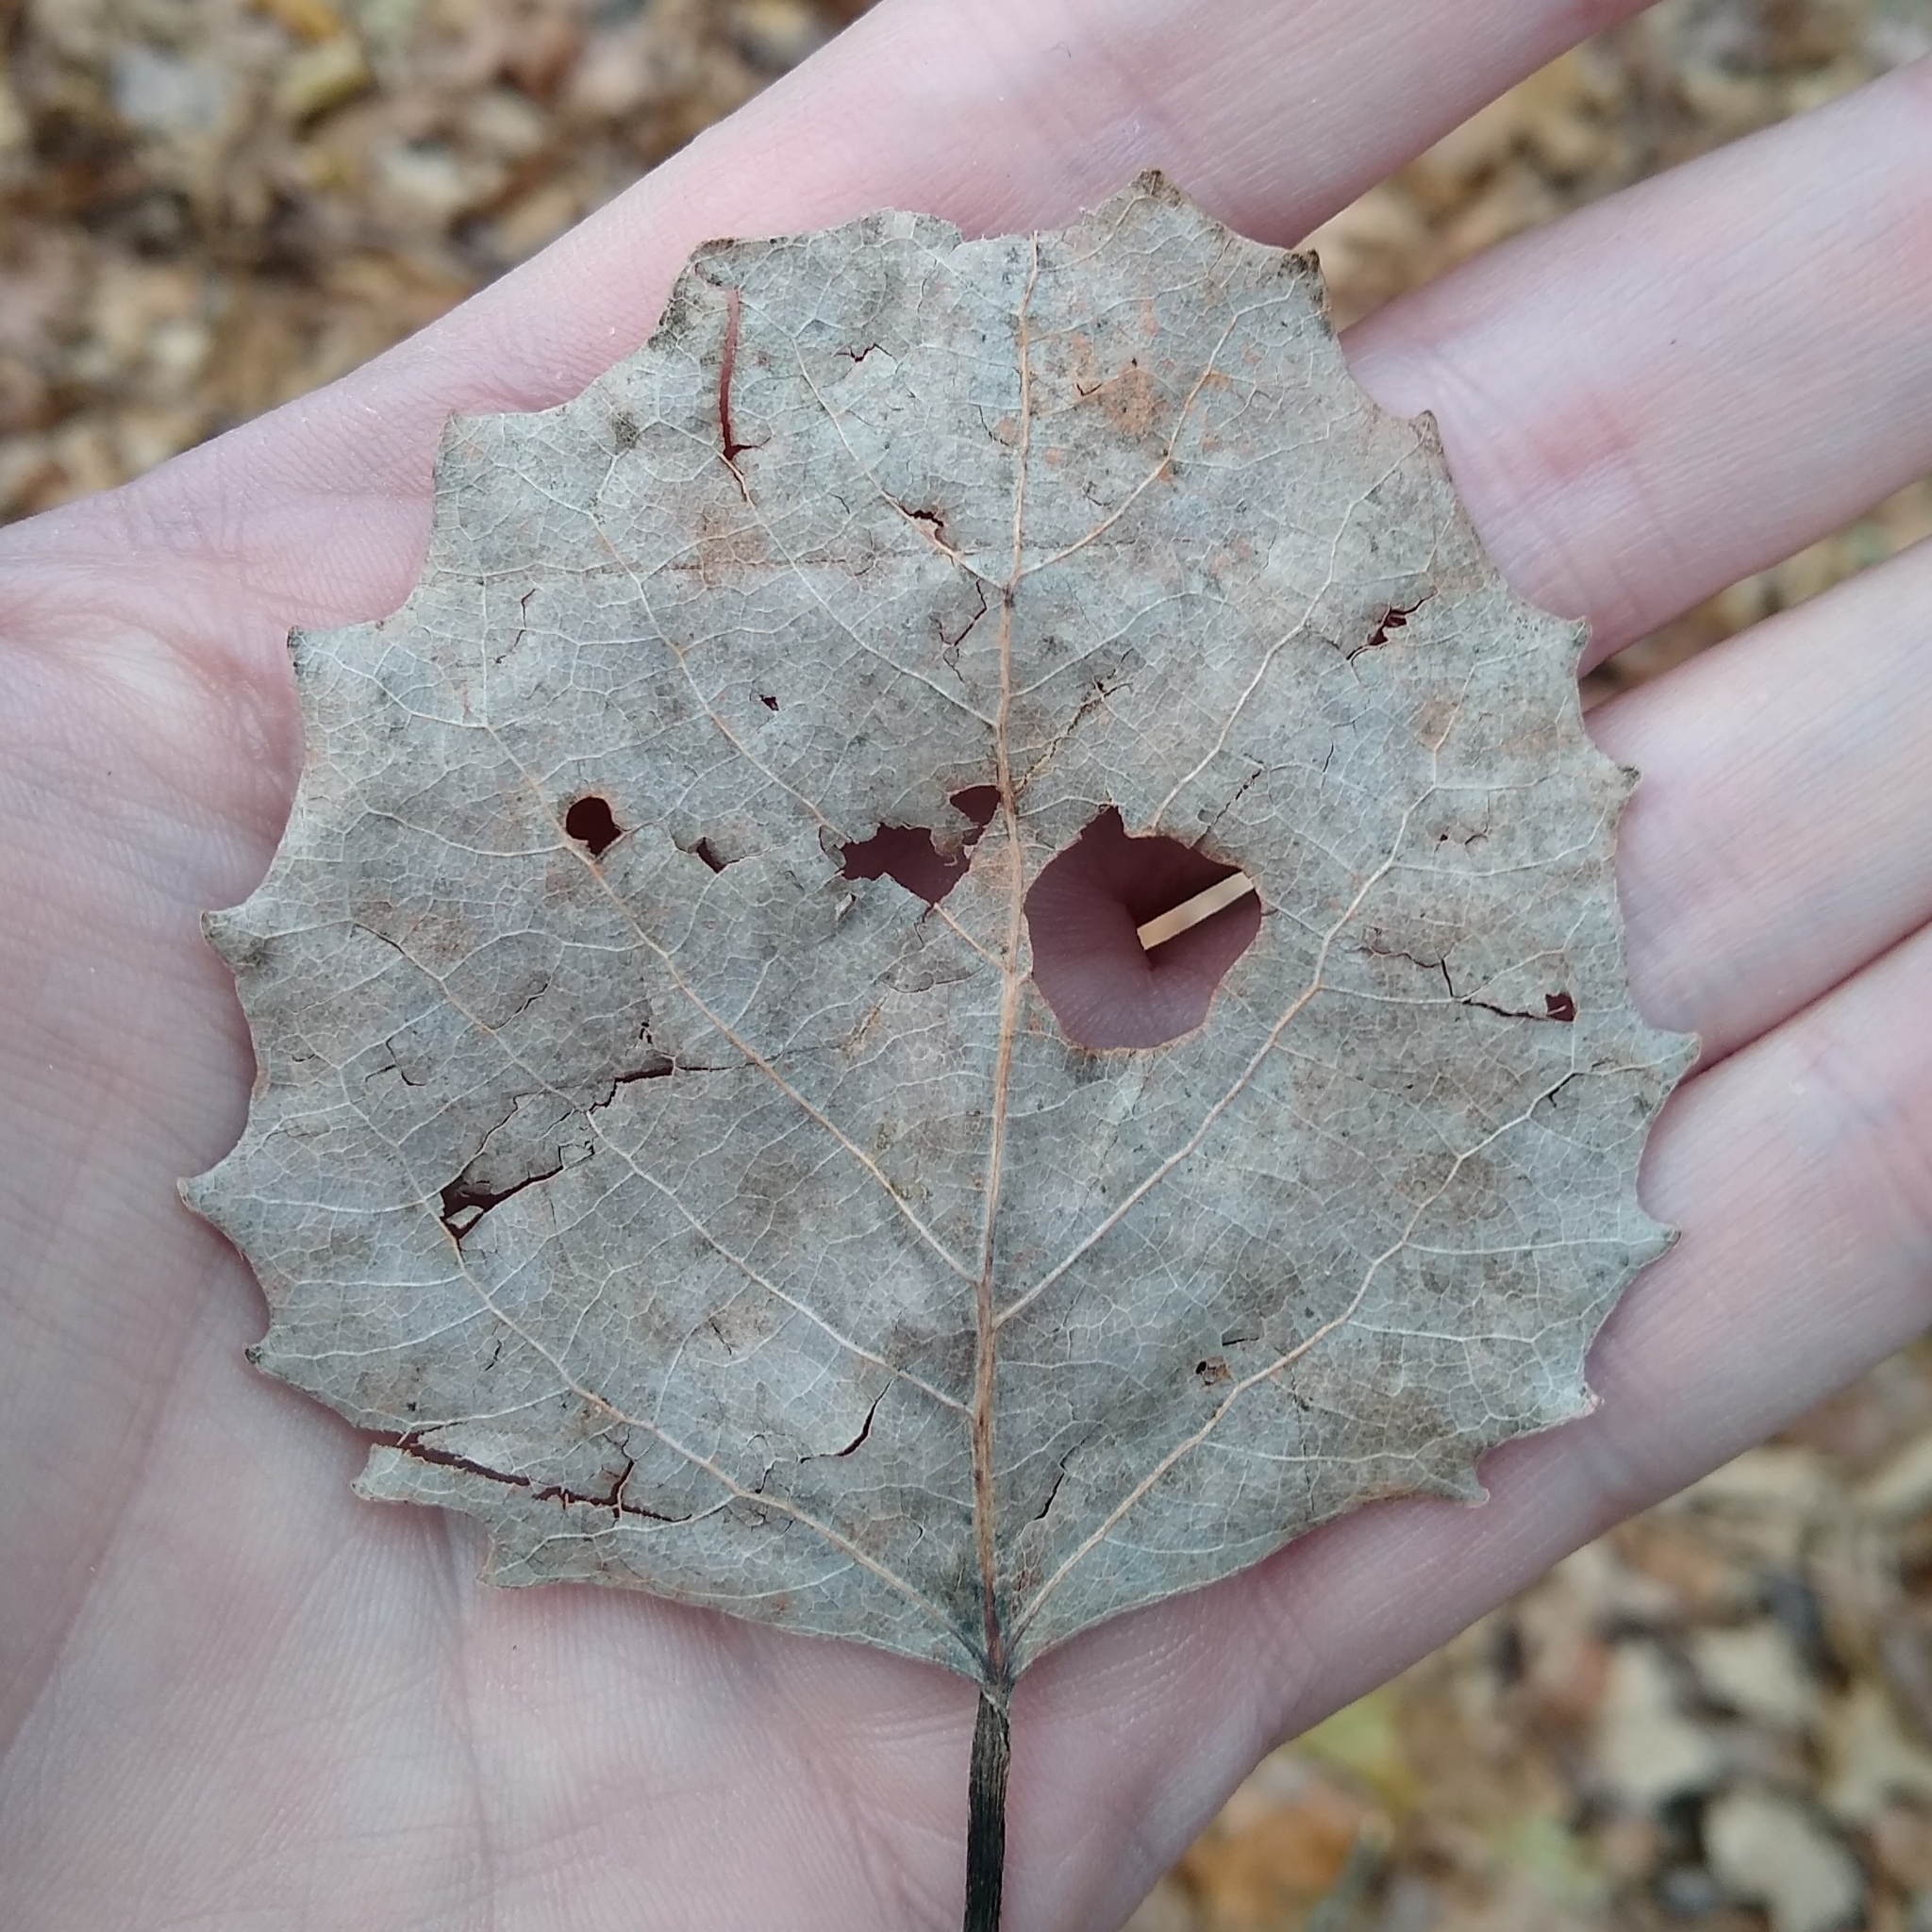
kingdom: Plantae
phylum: Tracheophyta
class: Magnoliopsida
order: Malpighiales
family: Salicaceae
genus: Populus
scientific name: Populus grandidentata
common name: Bigtooth aspen
